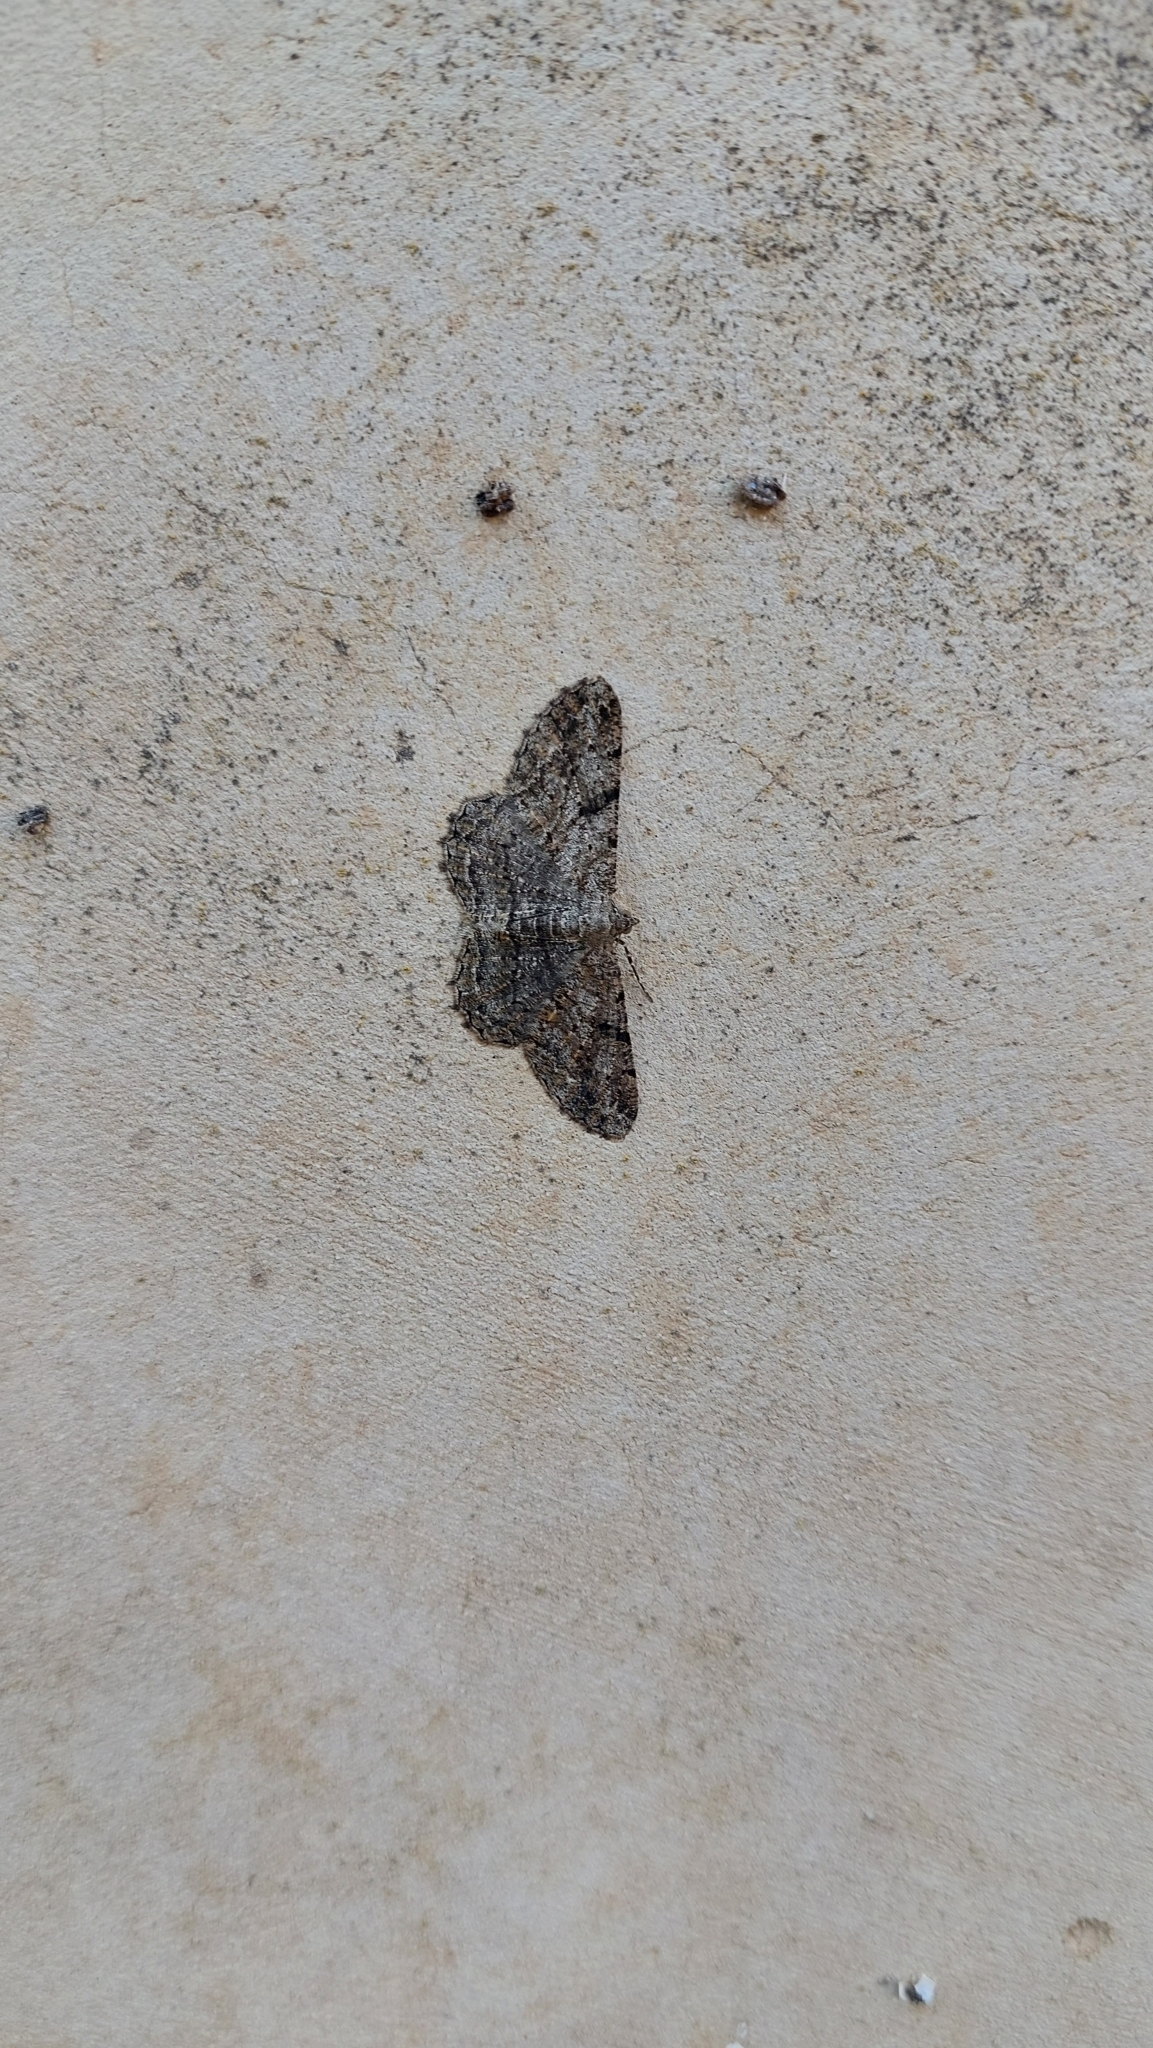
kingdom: Animalia
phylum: Arthropoda
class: Insecta
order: Lepidoptera
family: Geometridae
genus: Peribatodes
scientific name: Peribatodes rhomboidaria
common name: Willow beauty
